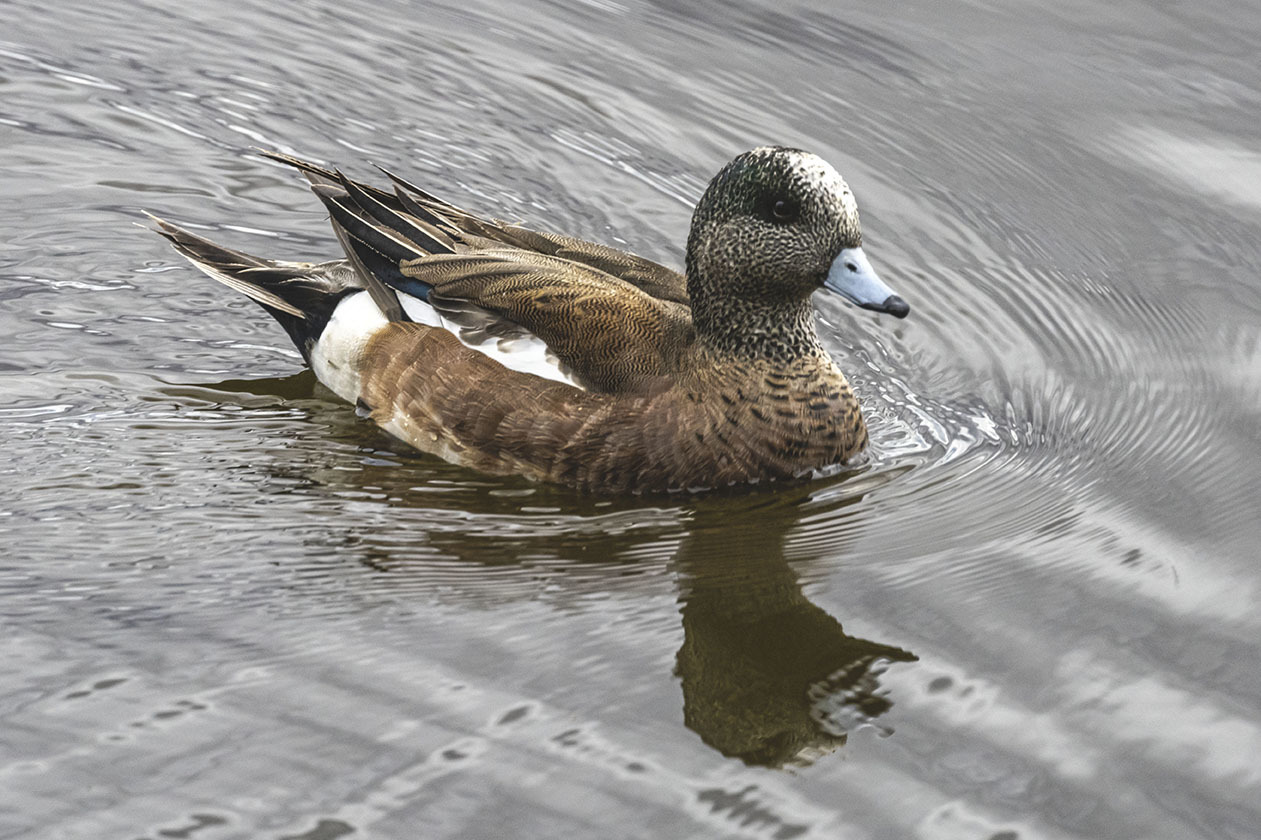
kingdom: Animalia
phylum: Chordata
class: Aves
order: Anseriformes
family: Anatidae
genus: Mareca
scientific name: Mareca americana
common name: American wigeon
